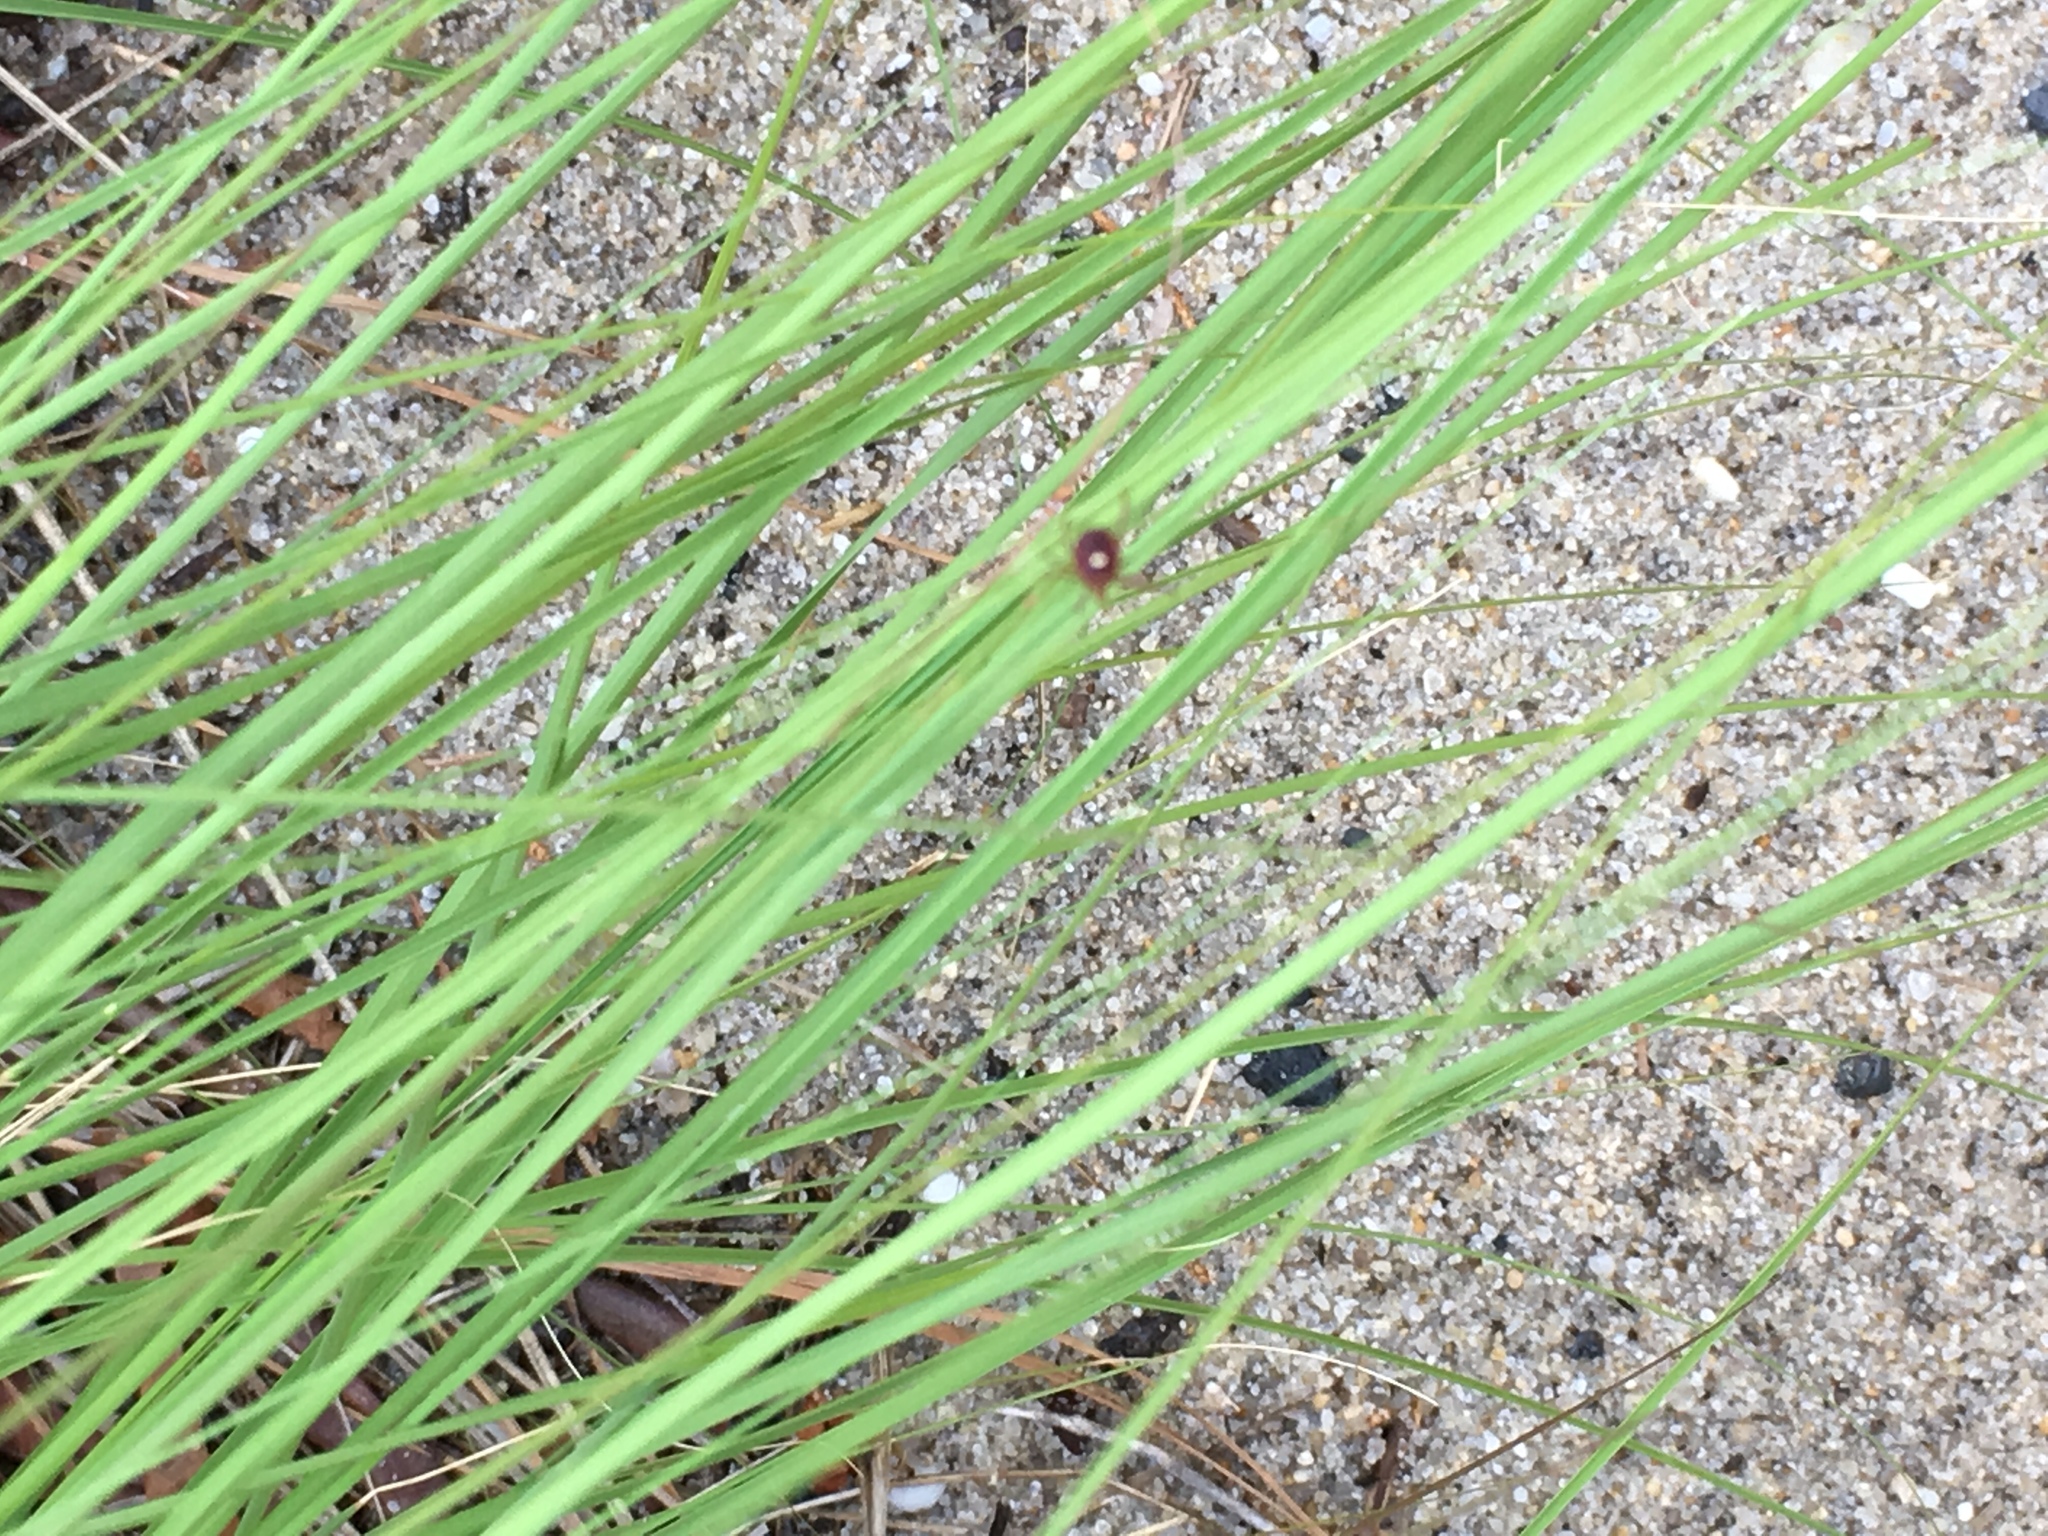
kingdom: Animalia
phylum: Arthropoda
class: Arachnida
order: Ixodida
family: Ixodidae
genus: Amblyomma
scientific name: Amblyomma americanum
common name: Lone star tick
